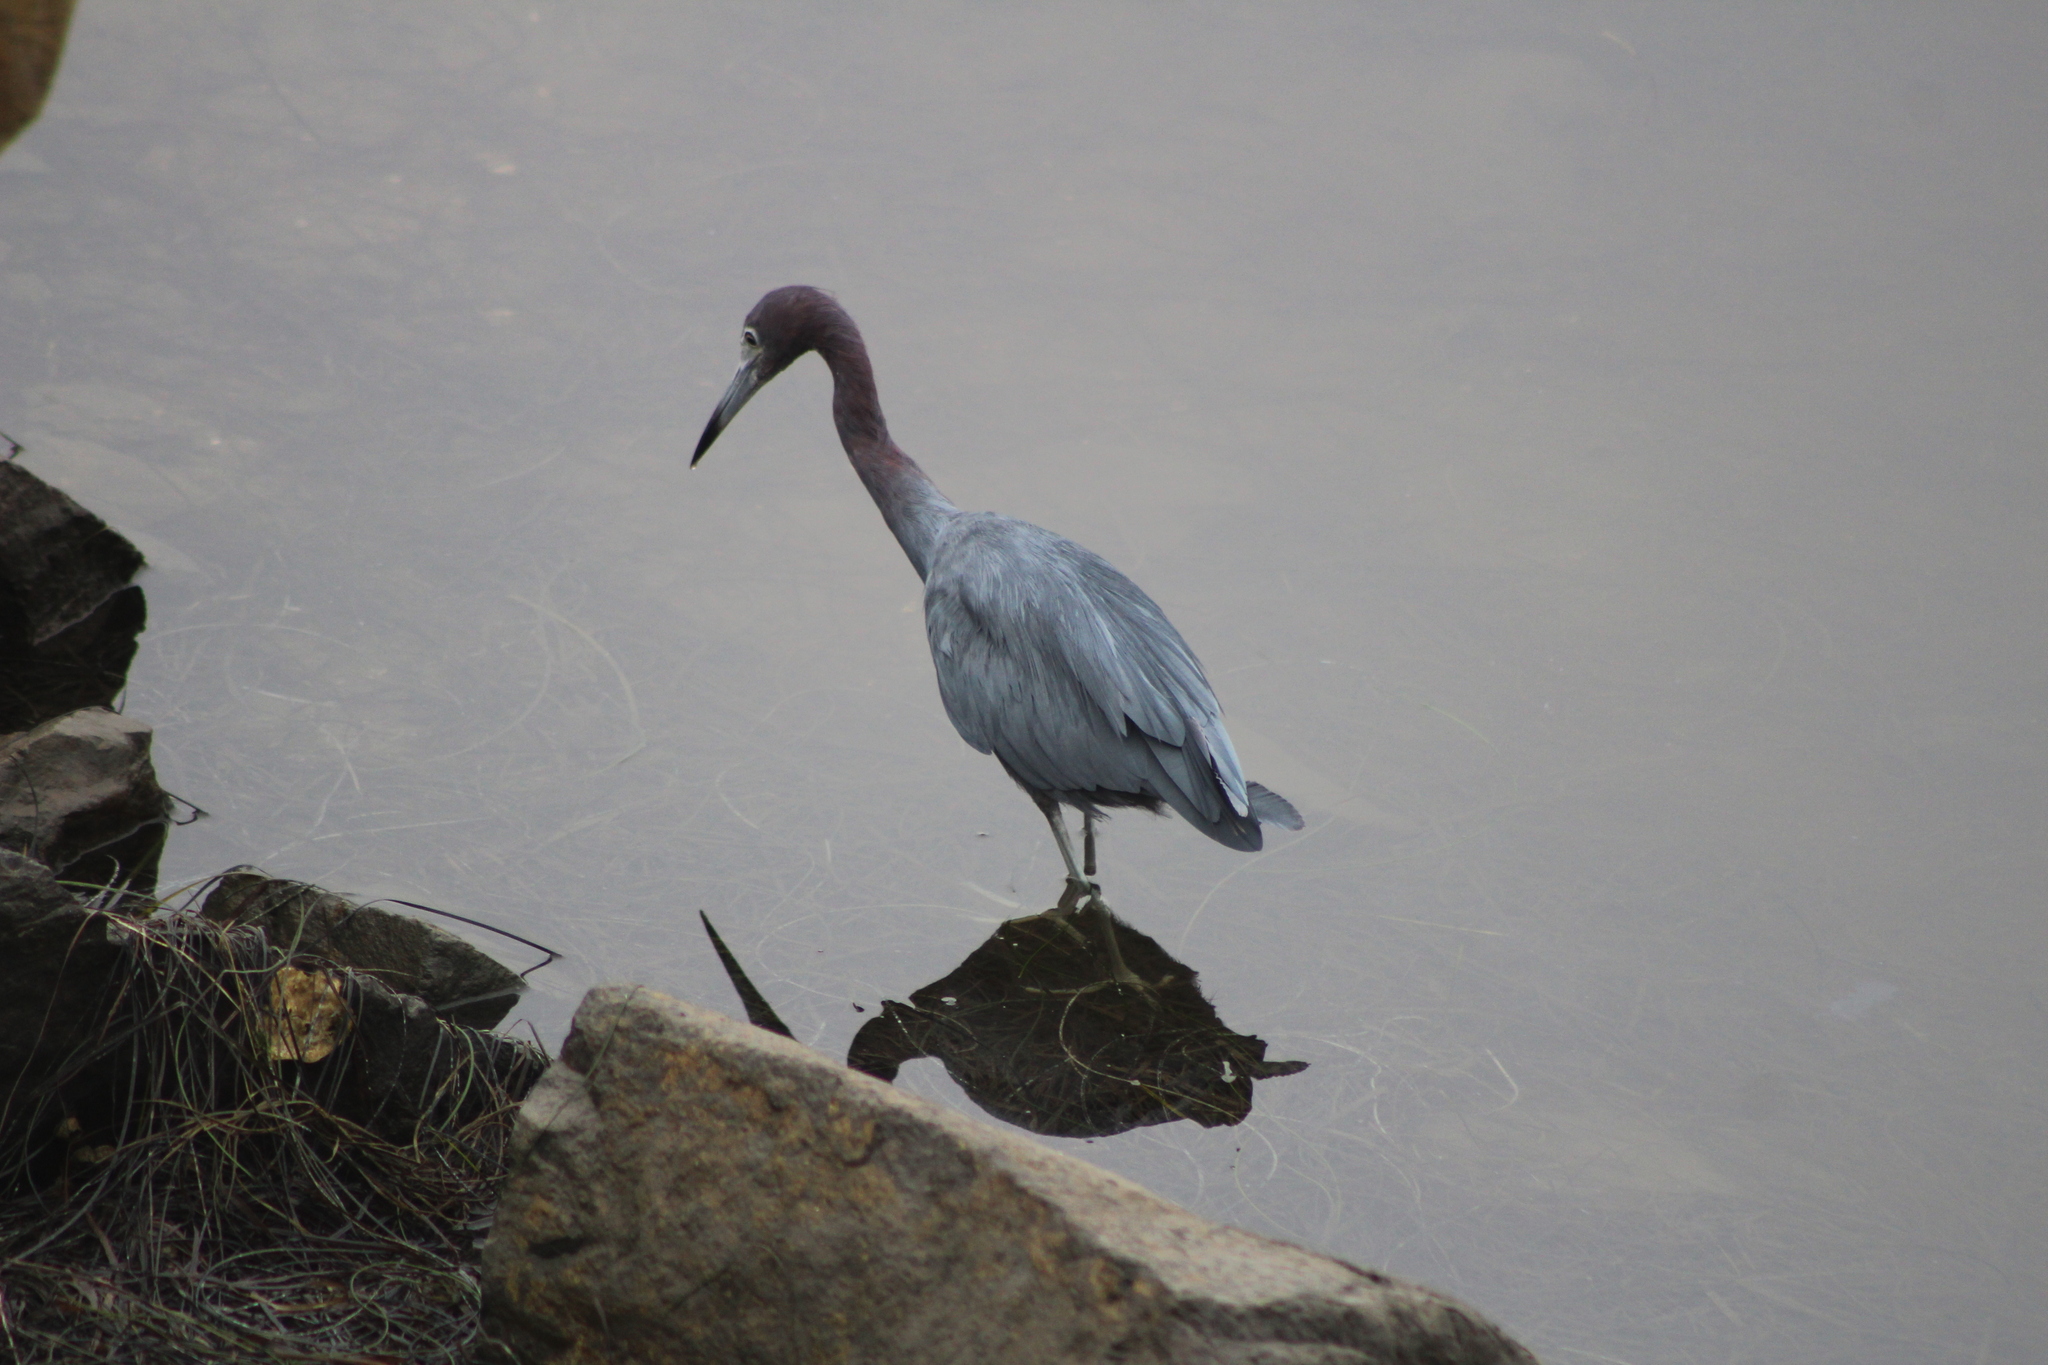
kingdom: Animalia
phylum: Chordata
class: Aves
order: Pelecaniformes
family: Ardeidae
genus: Egretta
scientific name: Egretta caerulea
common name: Little blue heron
